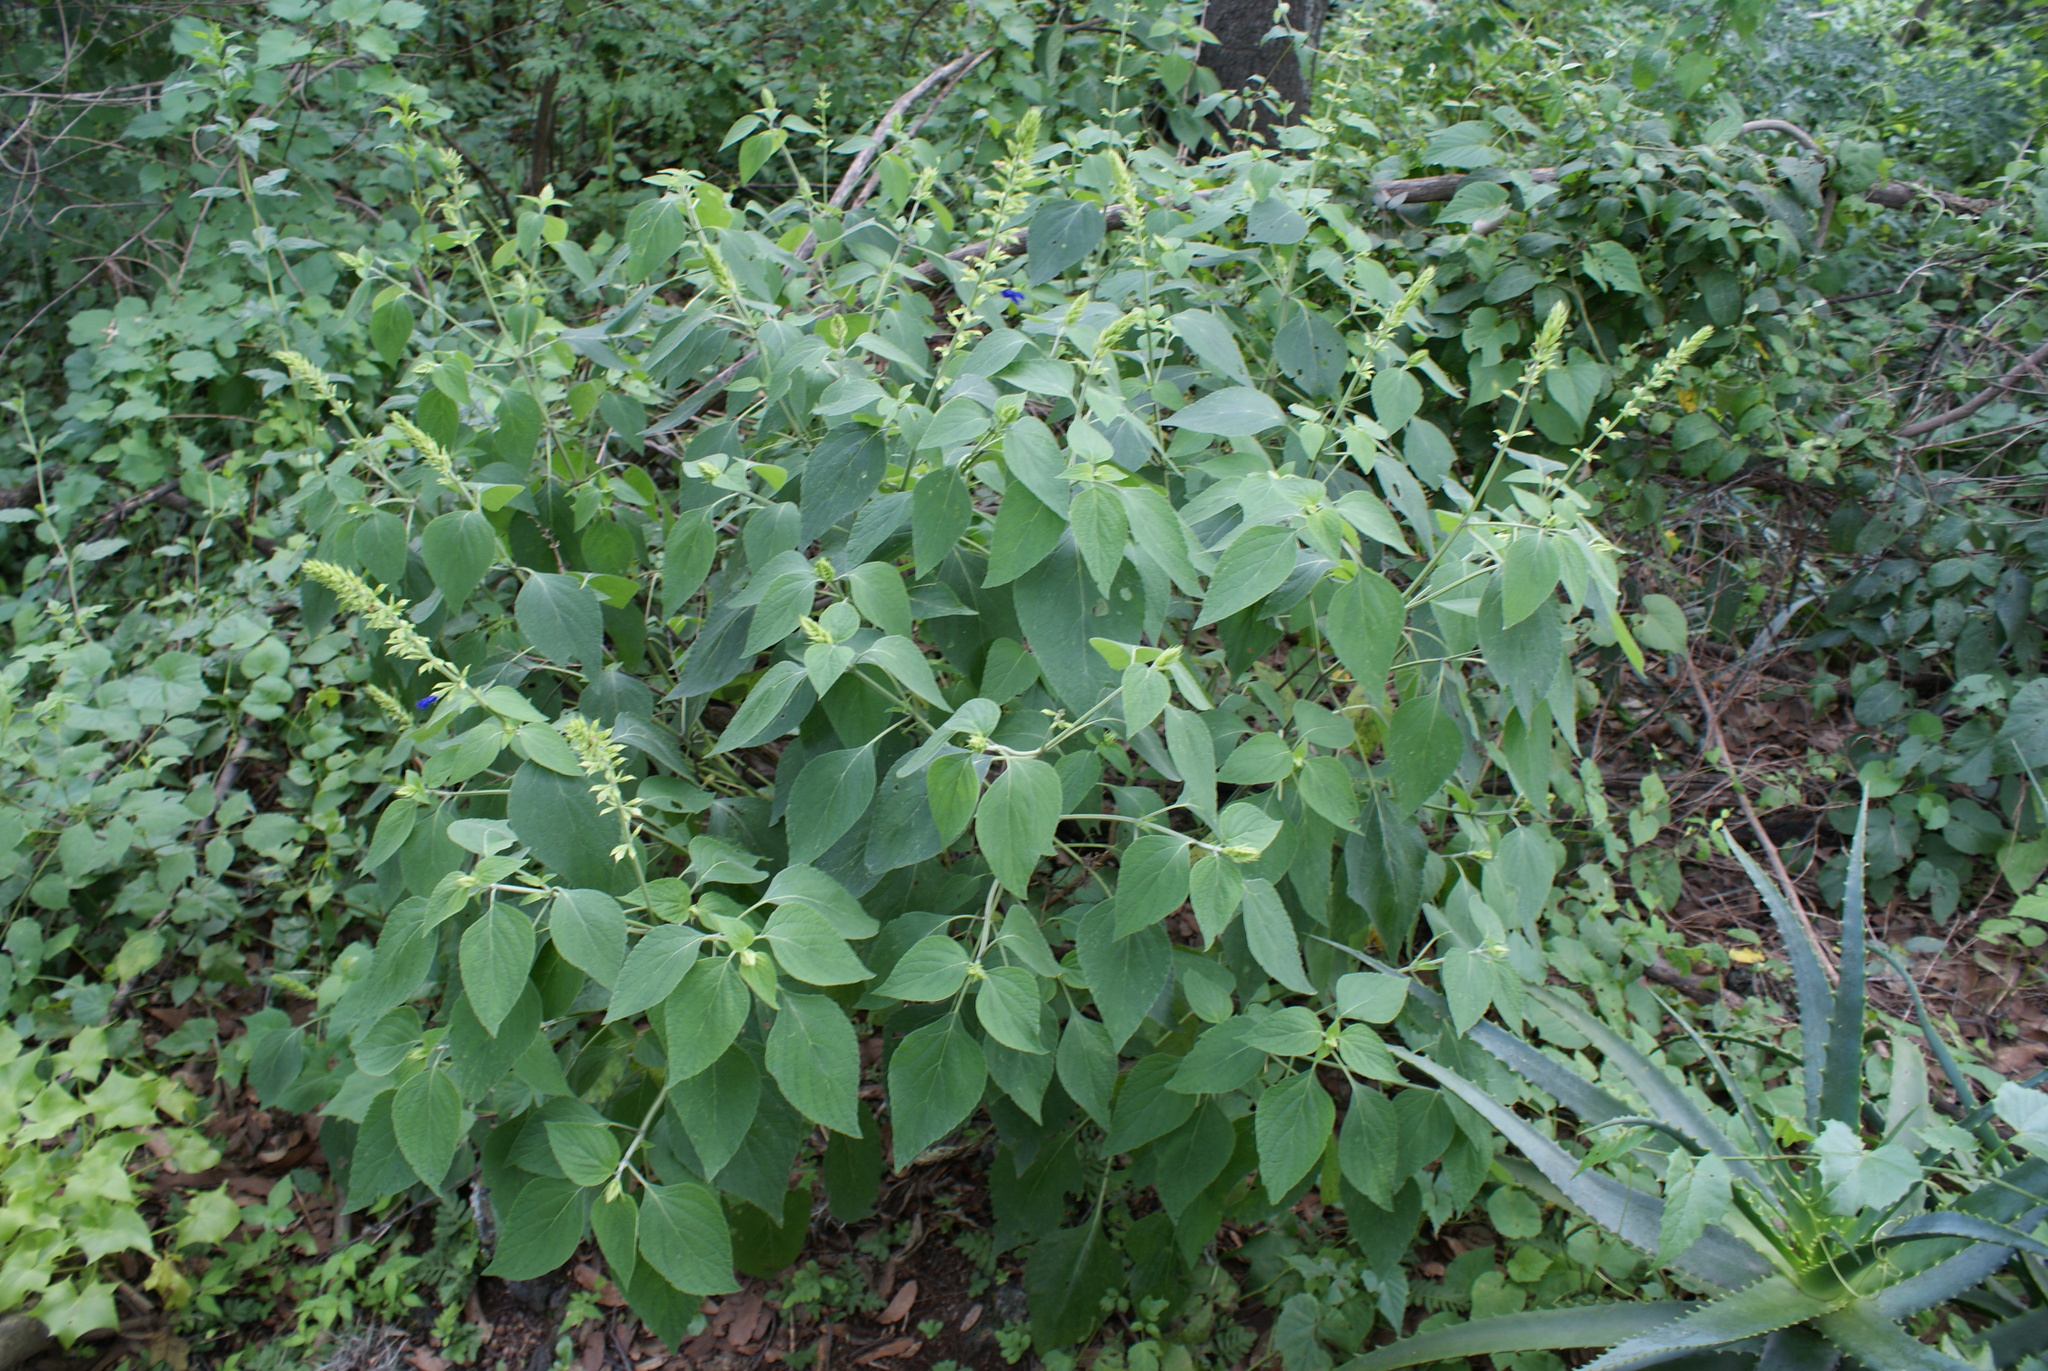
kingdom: Plantae
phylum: Tracheophyta
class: Magnoliopsida
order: Lamiales
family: Lamiaceae
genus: Salvia
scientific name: Salvia mexicana
